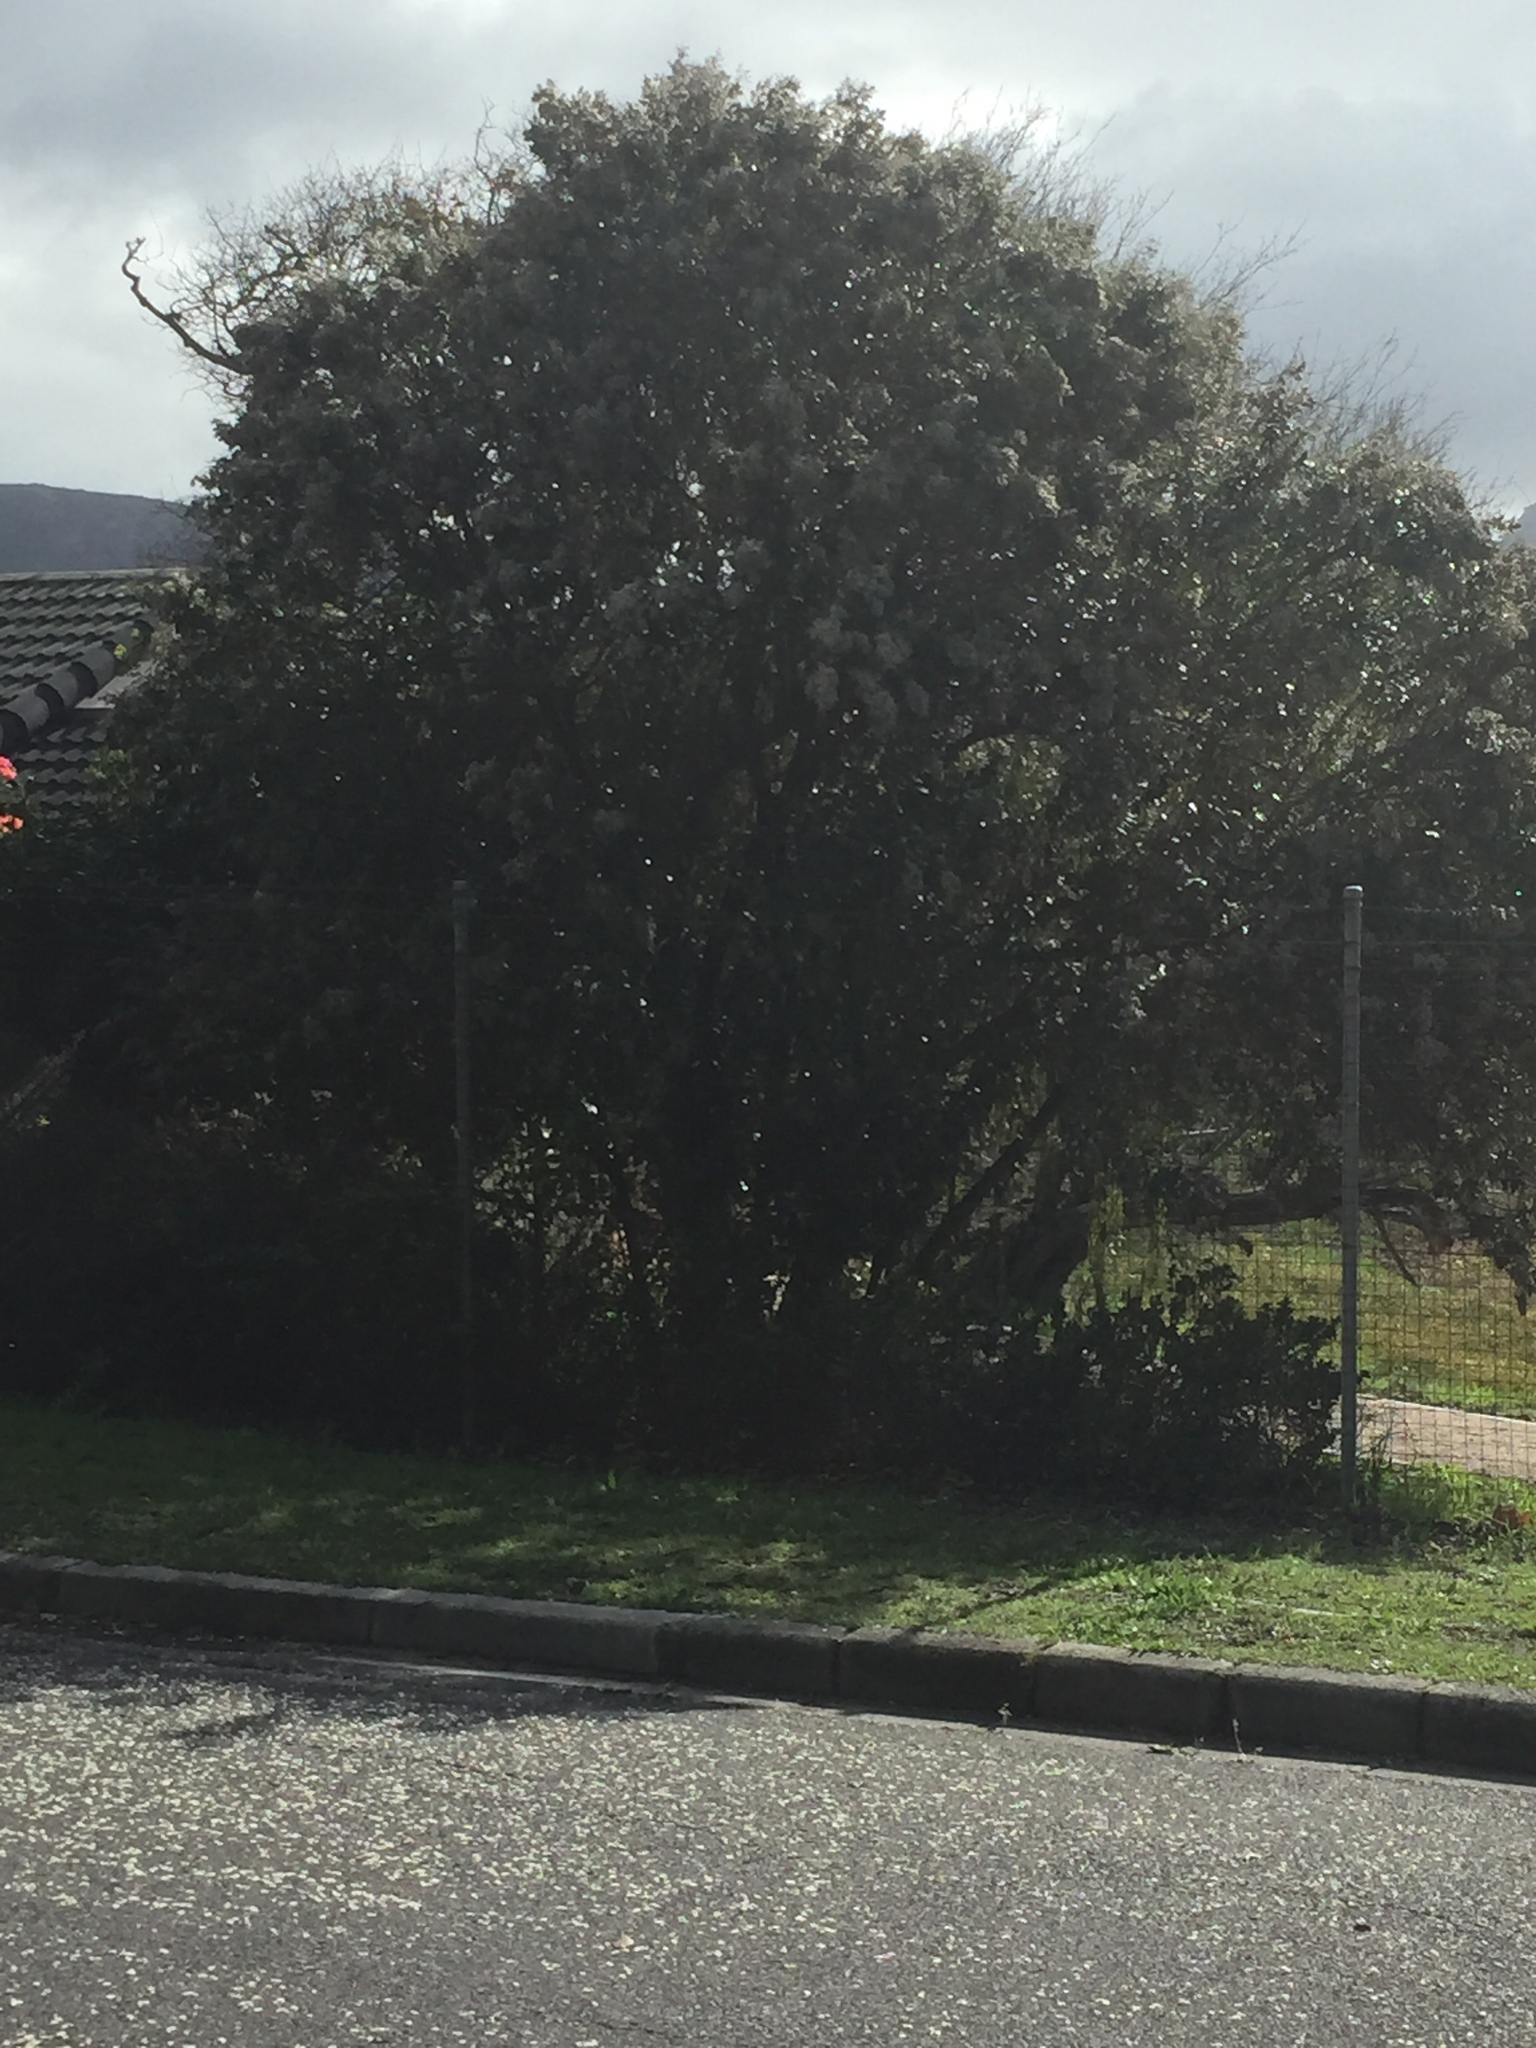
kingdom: Plantae
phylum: Tracheophyta
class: Magnoliopsida
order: Asterales
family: Asteraceae
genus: Tarchonanthus
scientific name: Tarchonanthus littoralis
